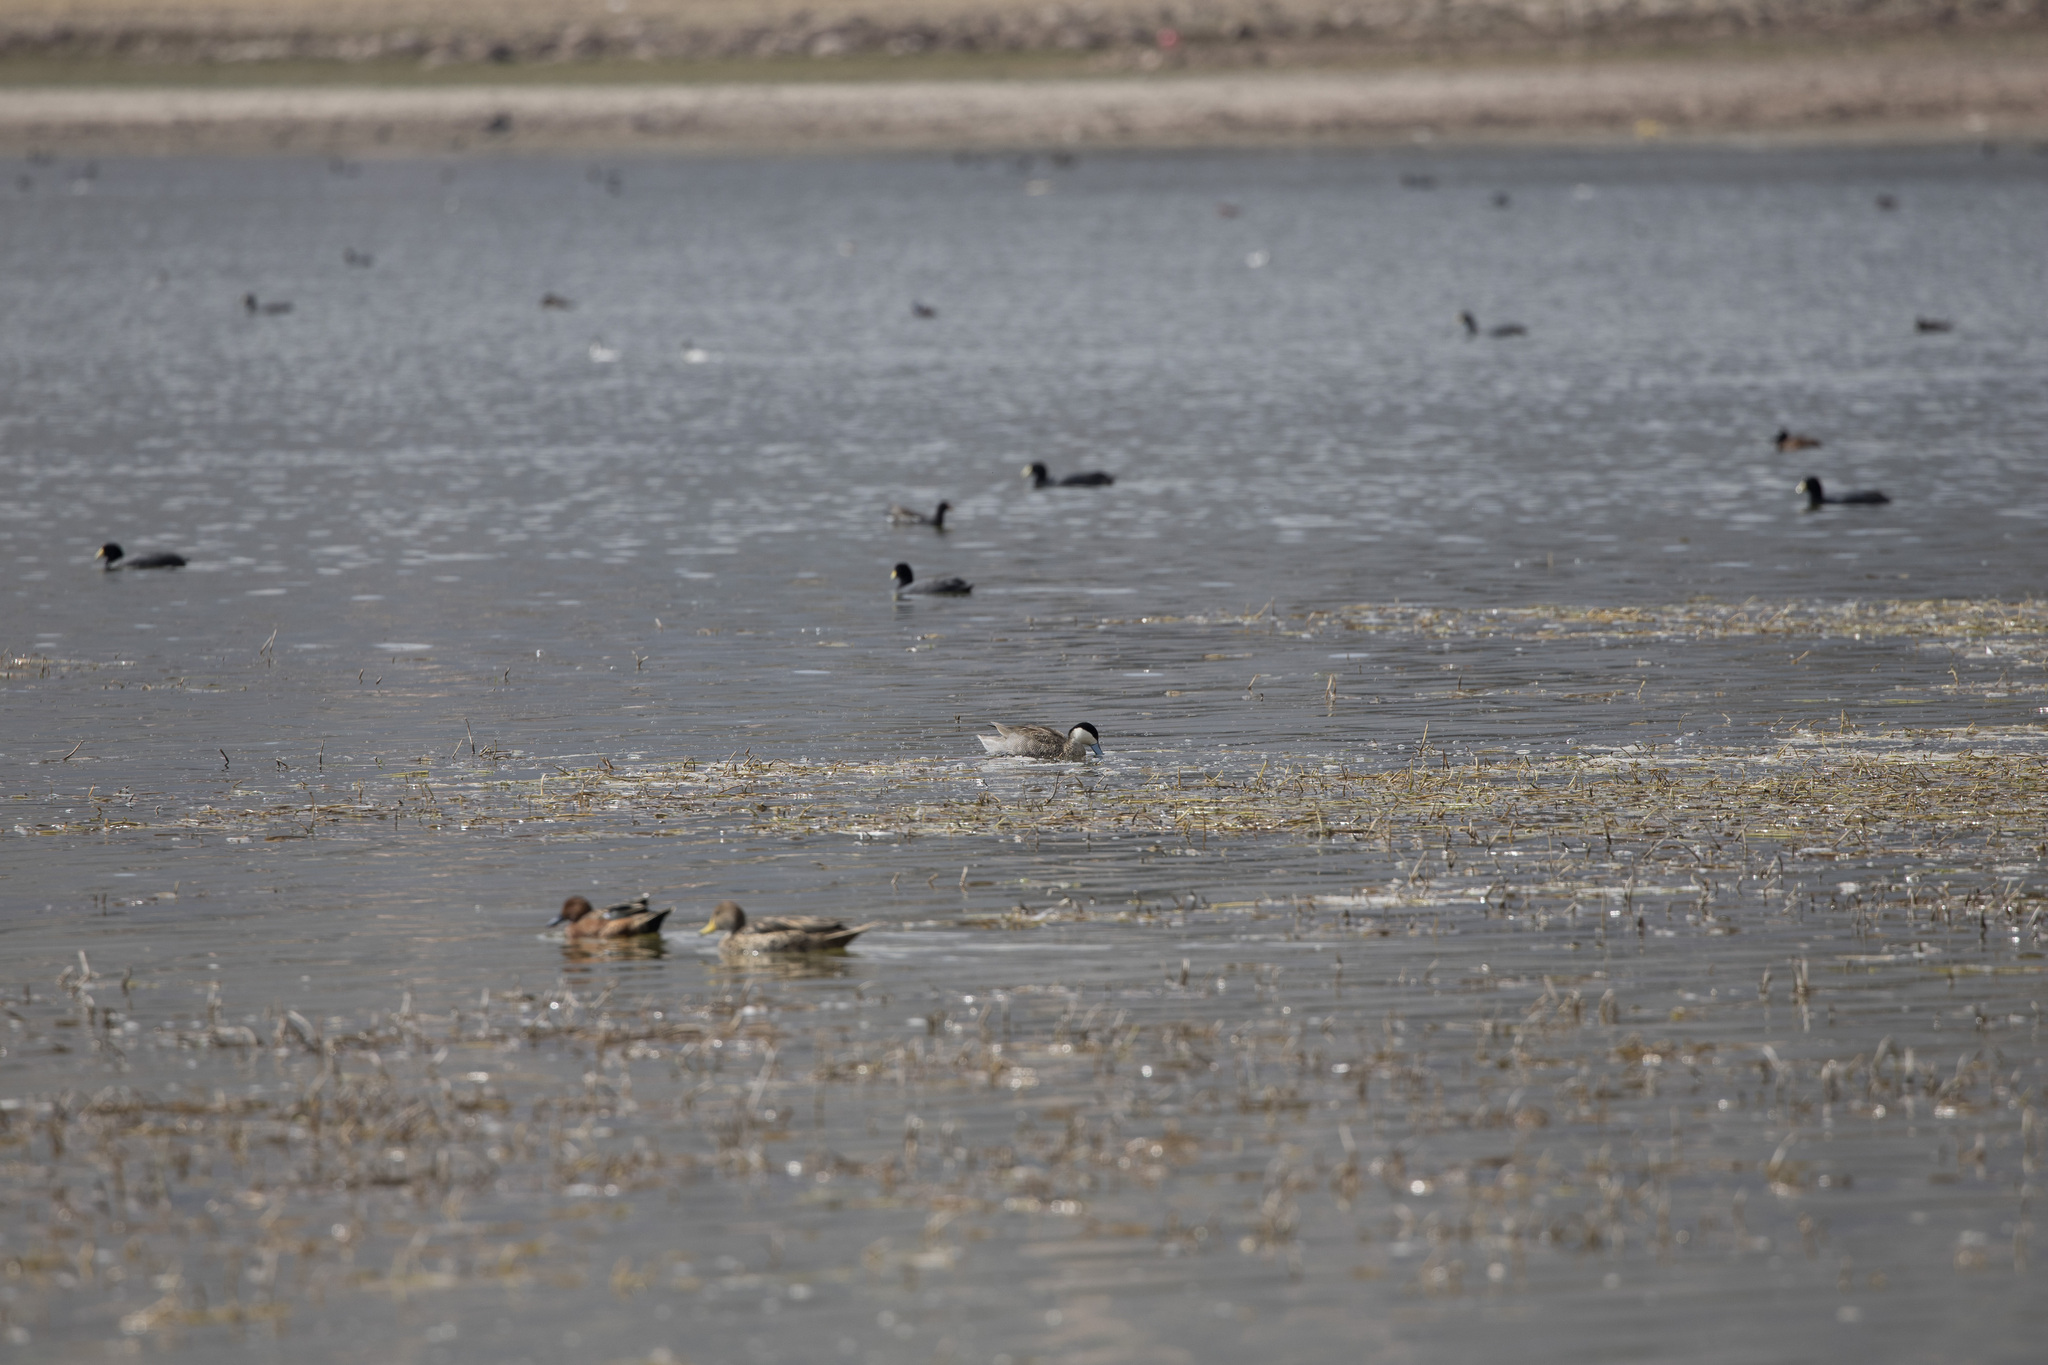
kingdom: Animalia
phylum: Chordata
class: Aves
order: Anseriformes
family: Anatidae
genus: Spatula
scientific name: Spatula puna
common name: Puna teal
